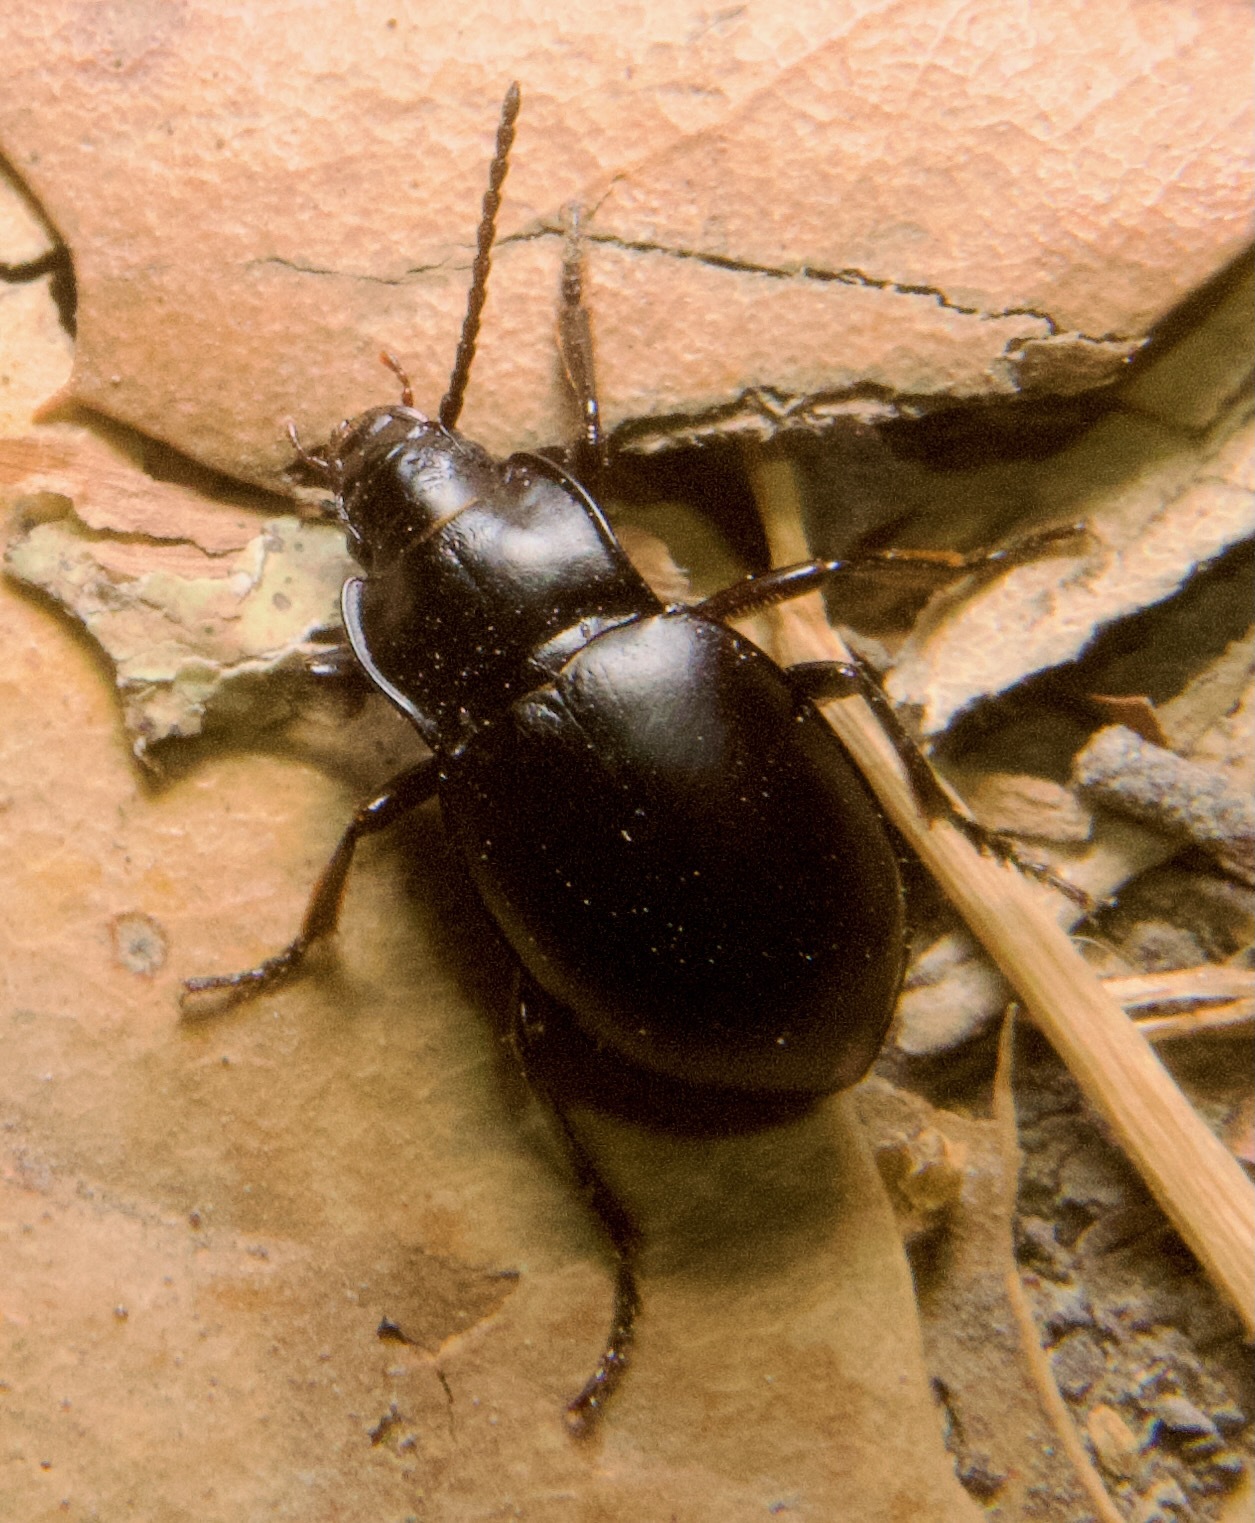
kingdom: Animalia
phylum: Arthropoda
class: Insecta
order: Coleoptera
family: Carabidae
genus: Metrius
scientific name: Metrius contractus
